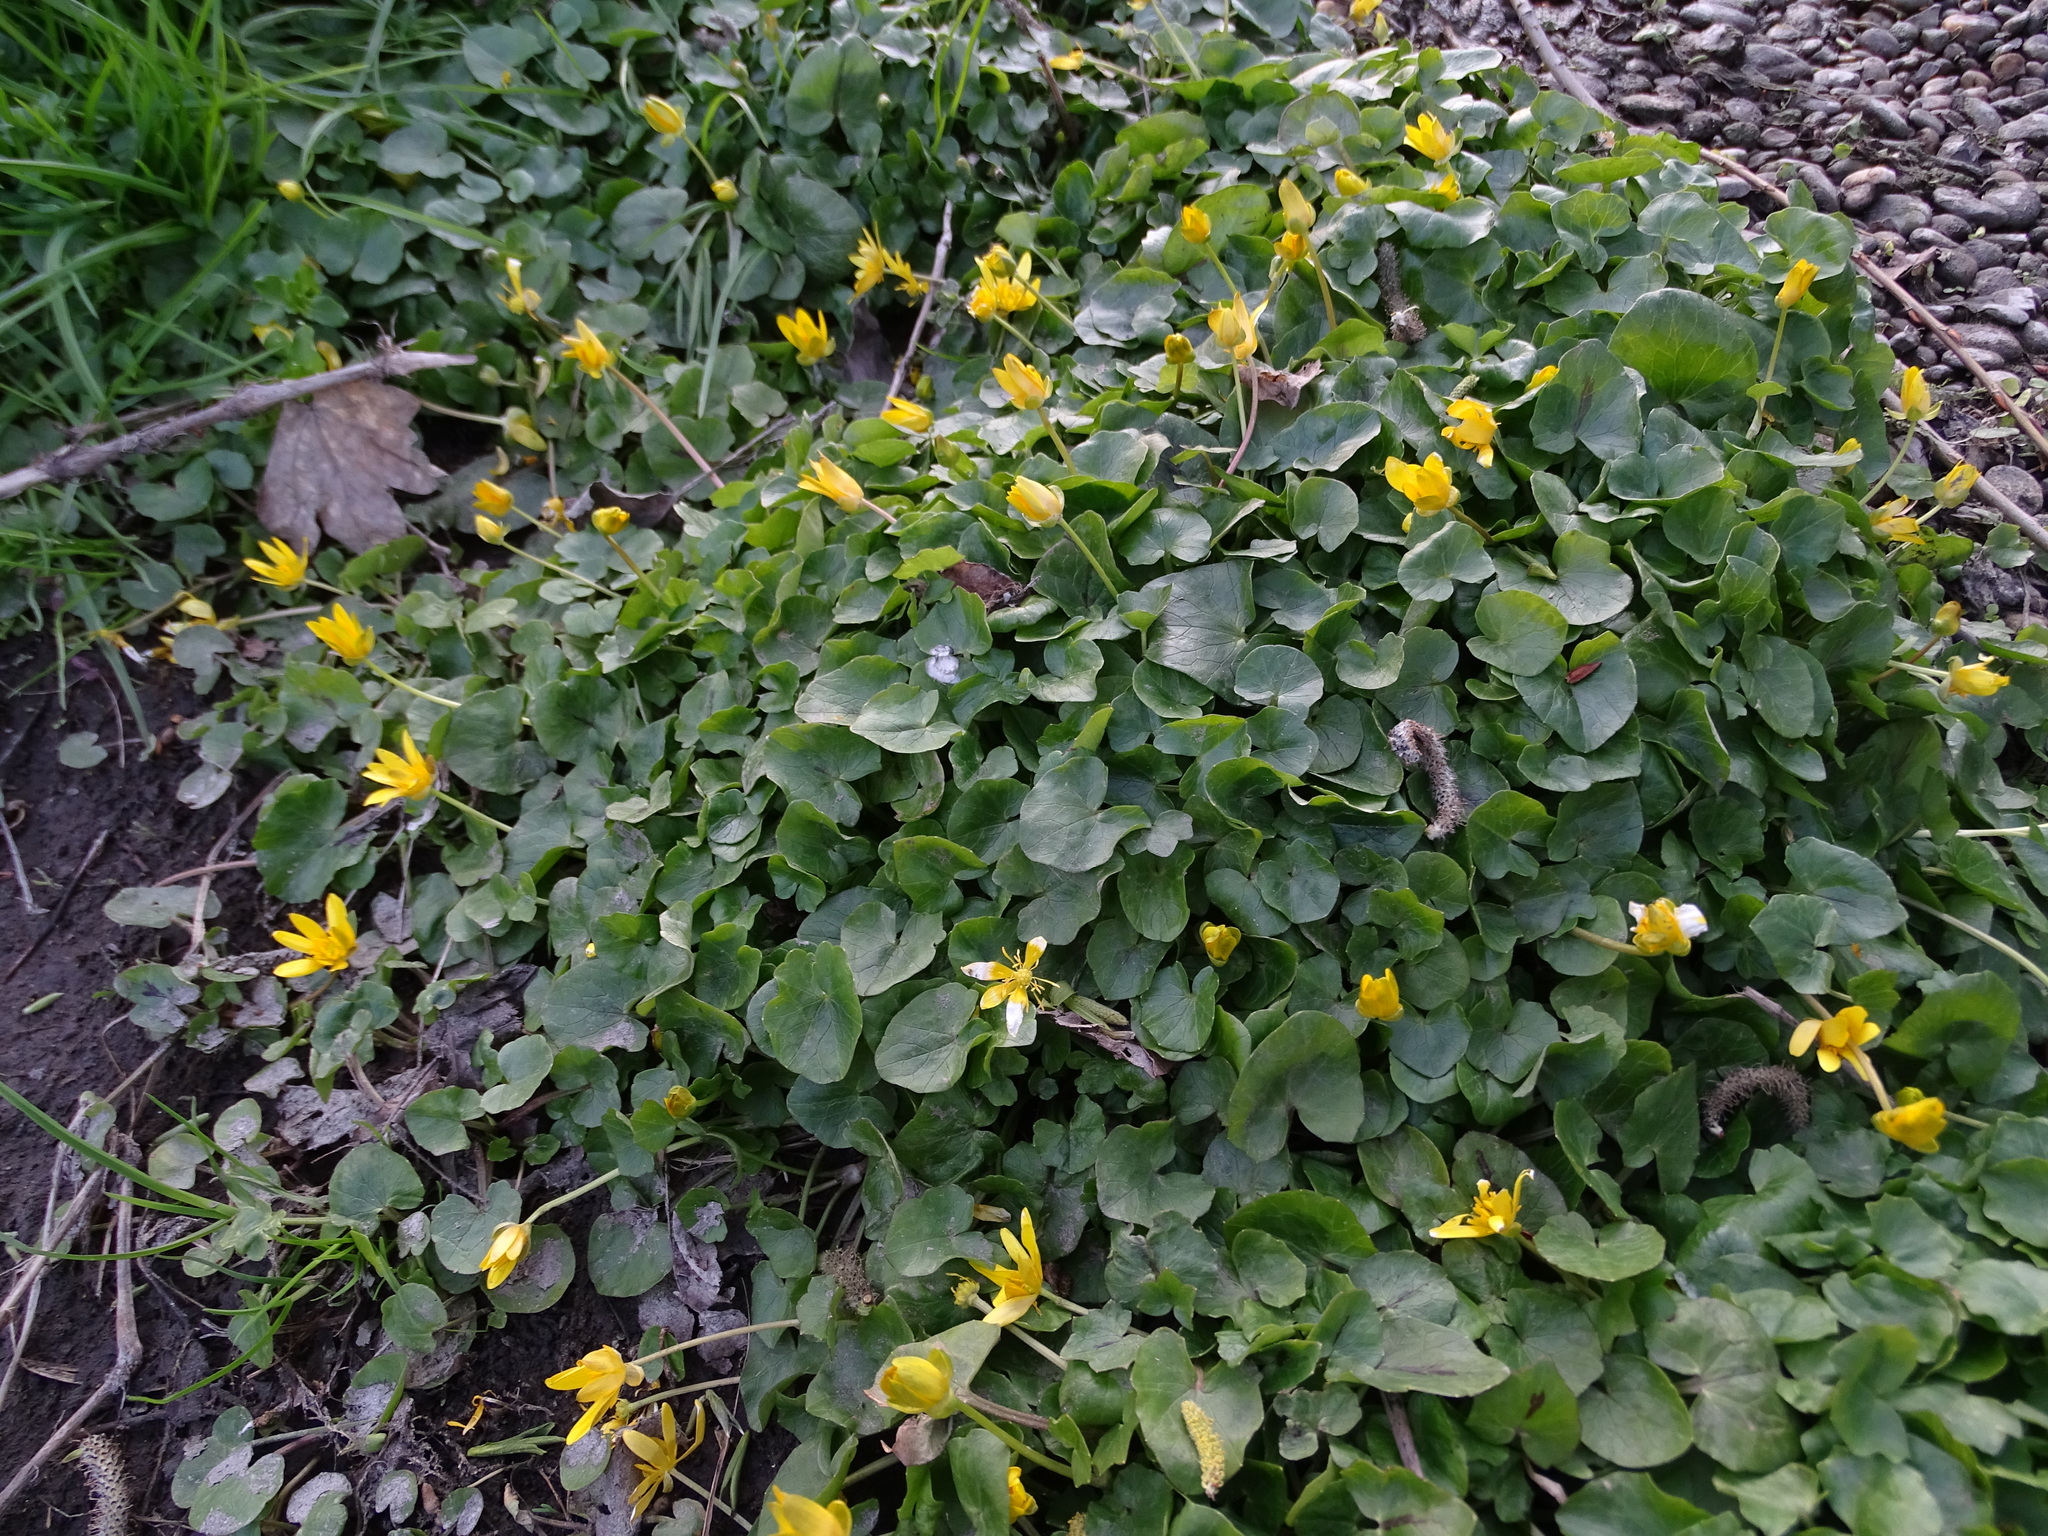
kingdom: Plantae
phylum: Tracheophyta
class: Magnoliopsida
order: Ranunculales
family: Ranunculaceae
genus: Ficaria
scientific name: Ficaria verna
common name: Lesser celandine
